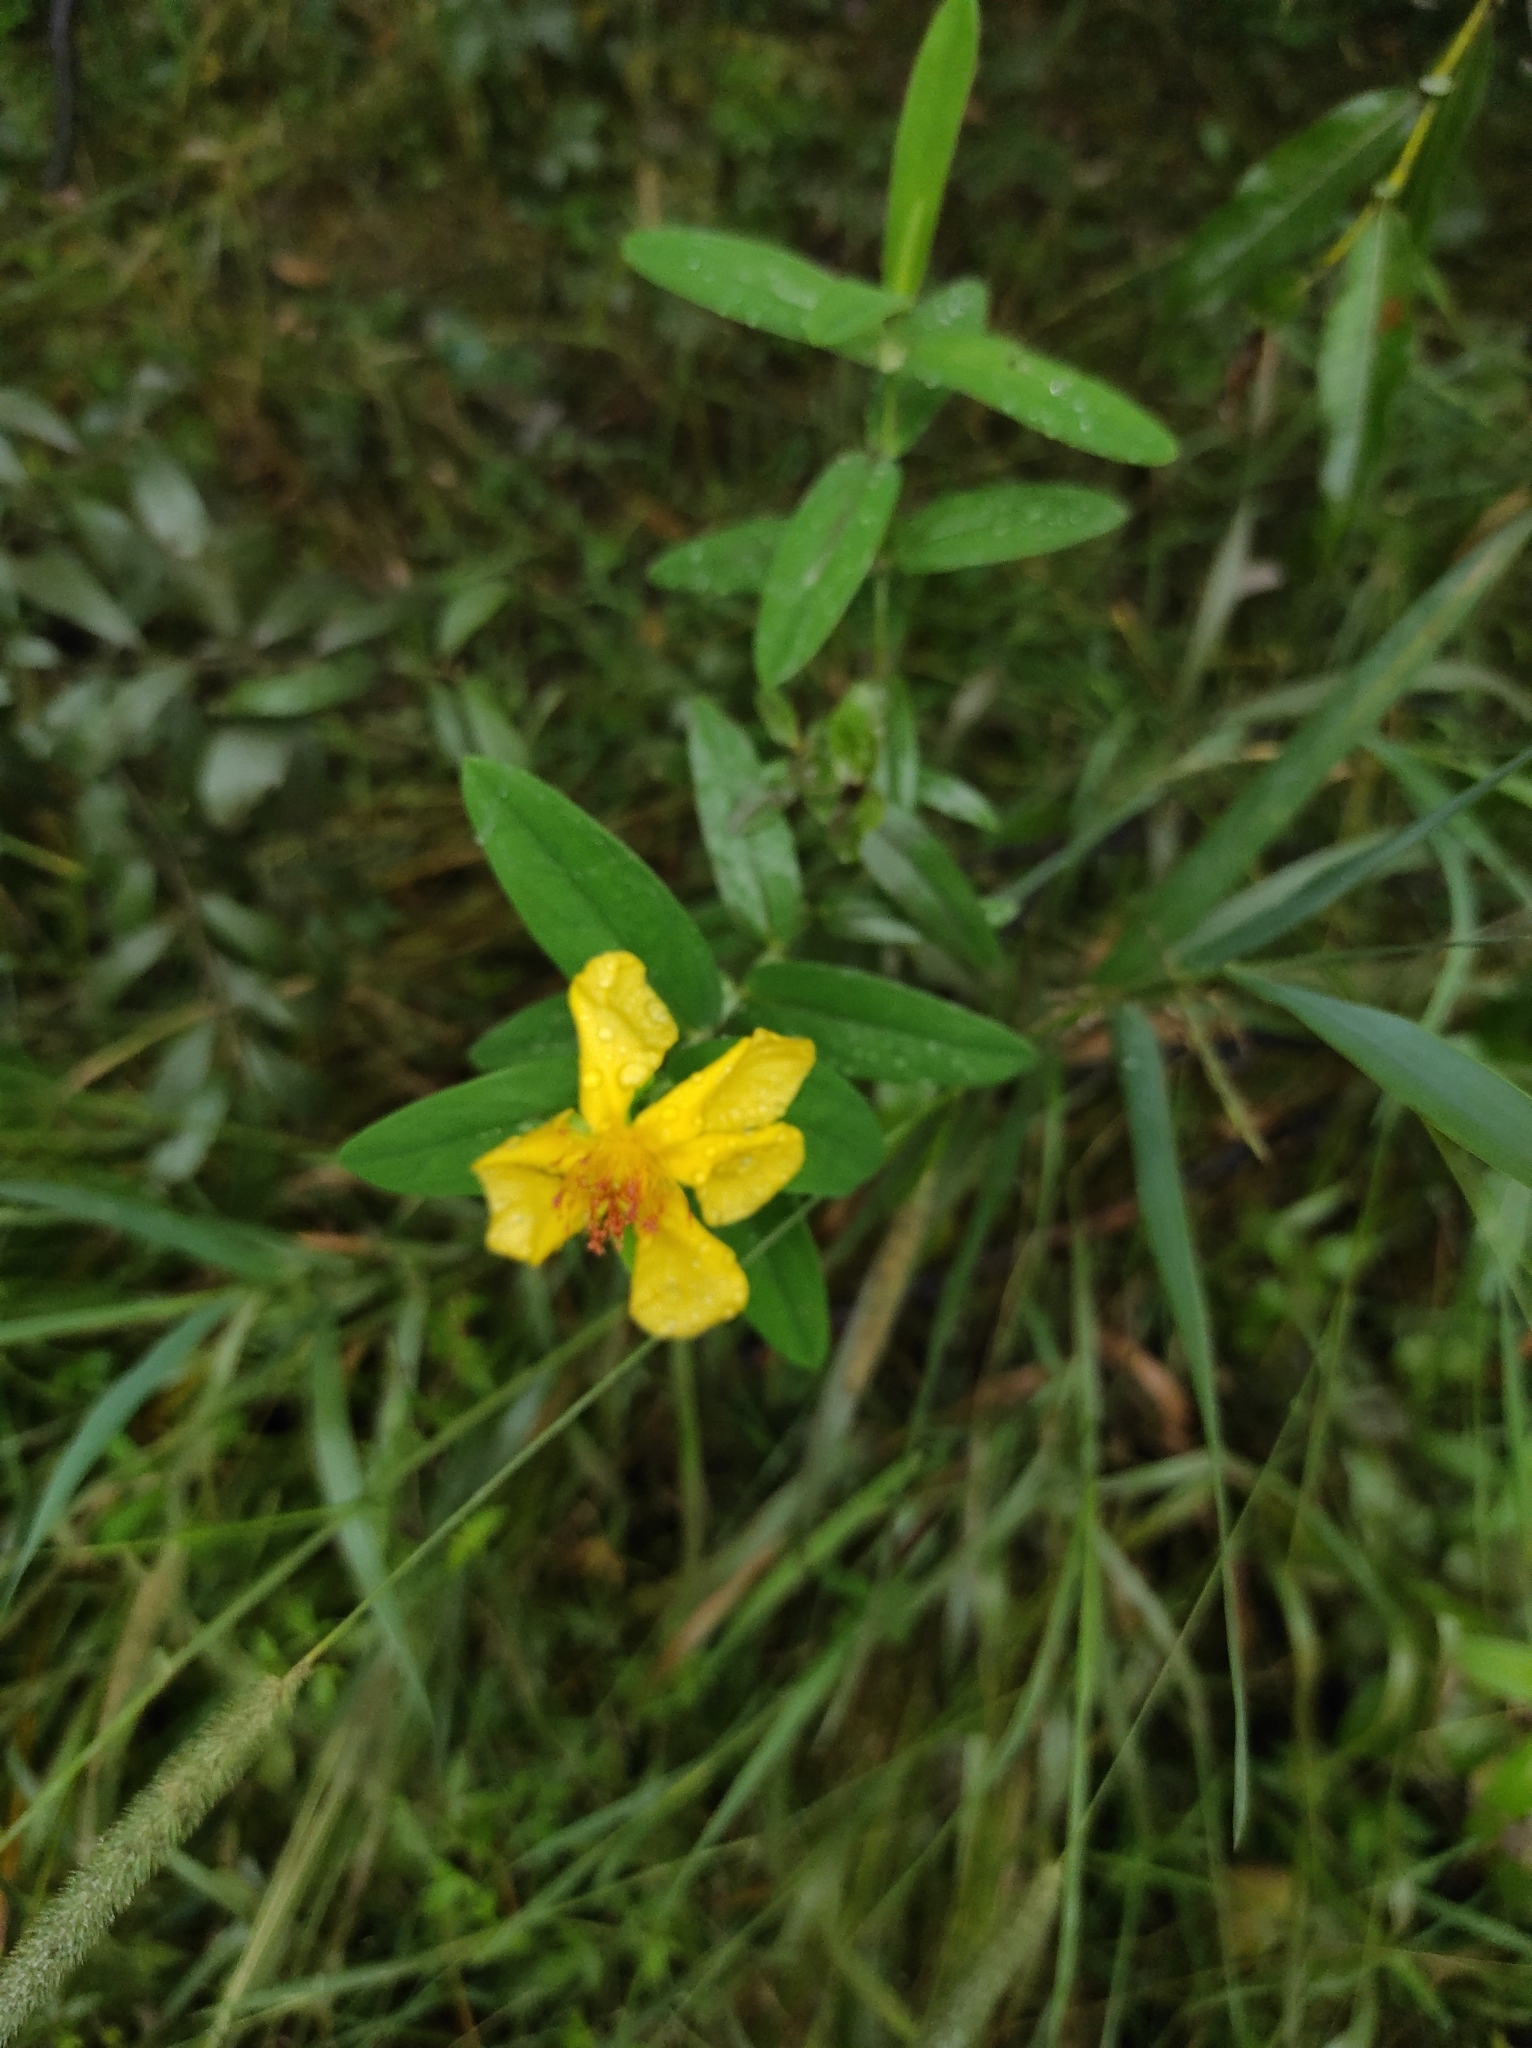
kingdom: Plantae
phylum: Tracheophyta
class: Magnoliopsida
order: Malpighiales
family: Hypericaceae
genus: Hypericum
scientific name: Hypericum ascyron
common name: Giant st. john's-wort
